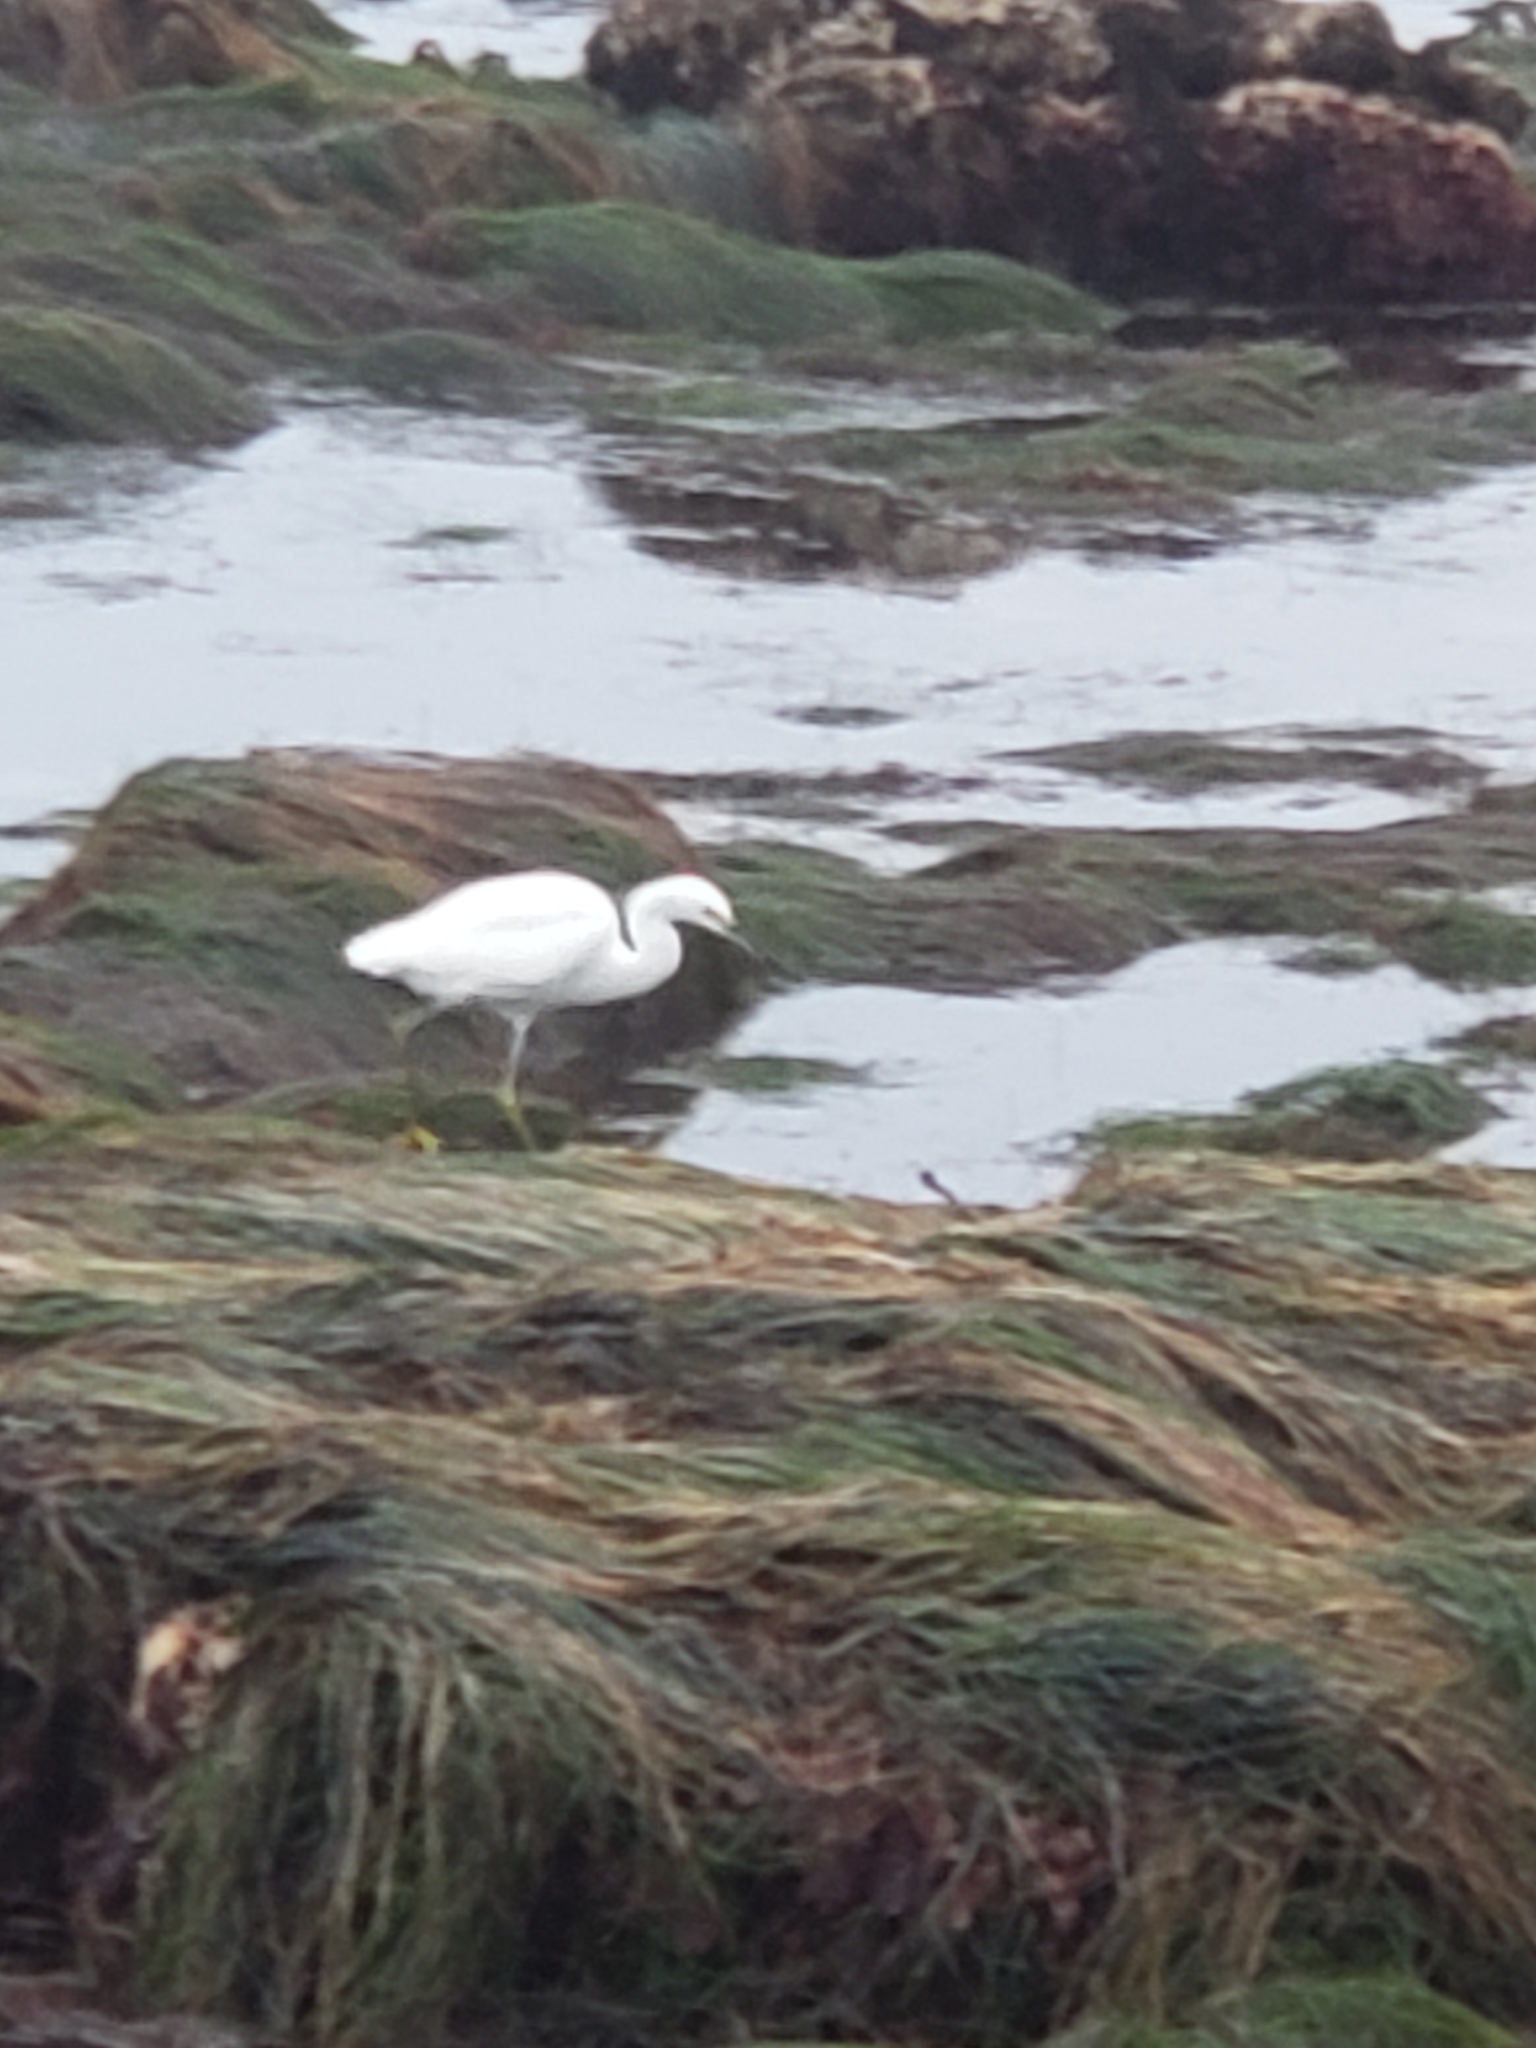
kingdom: Animalia
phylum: Chordata
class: Aves
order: Pelecaniformes
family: Ardeidae
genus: Egretta
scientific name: Egretta thula
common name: Snowy egret
